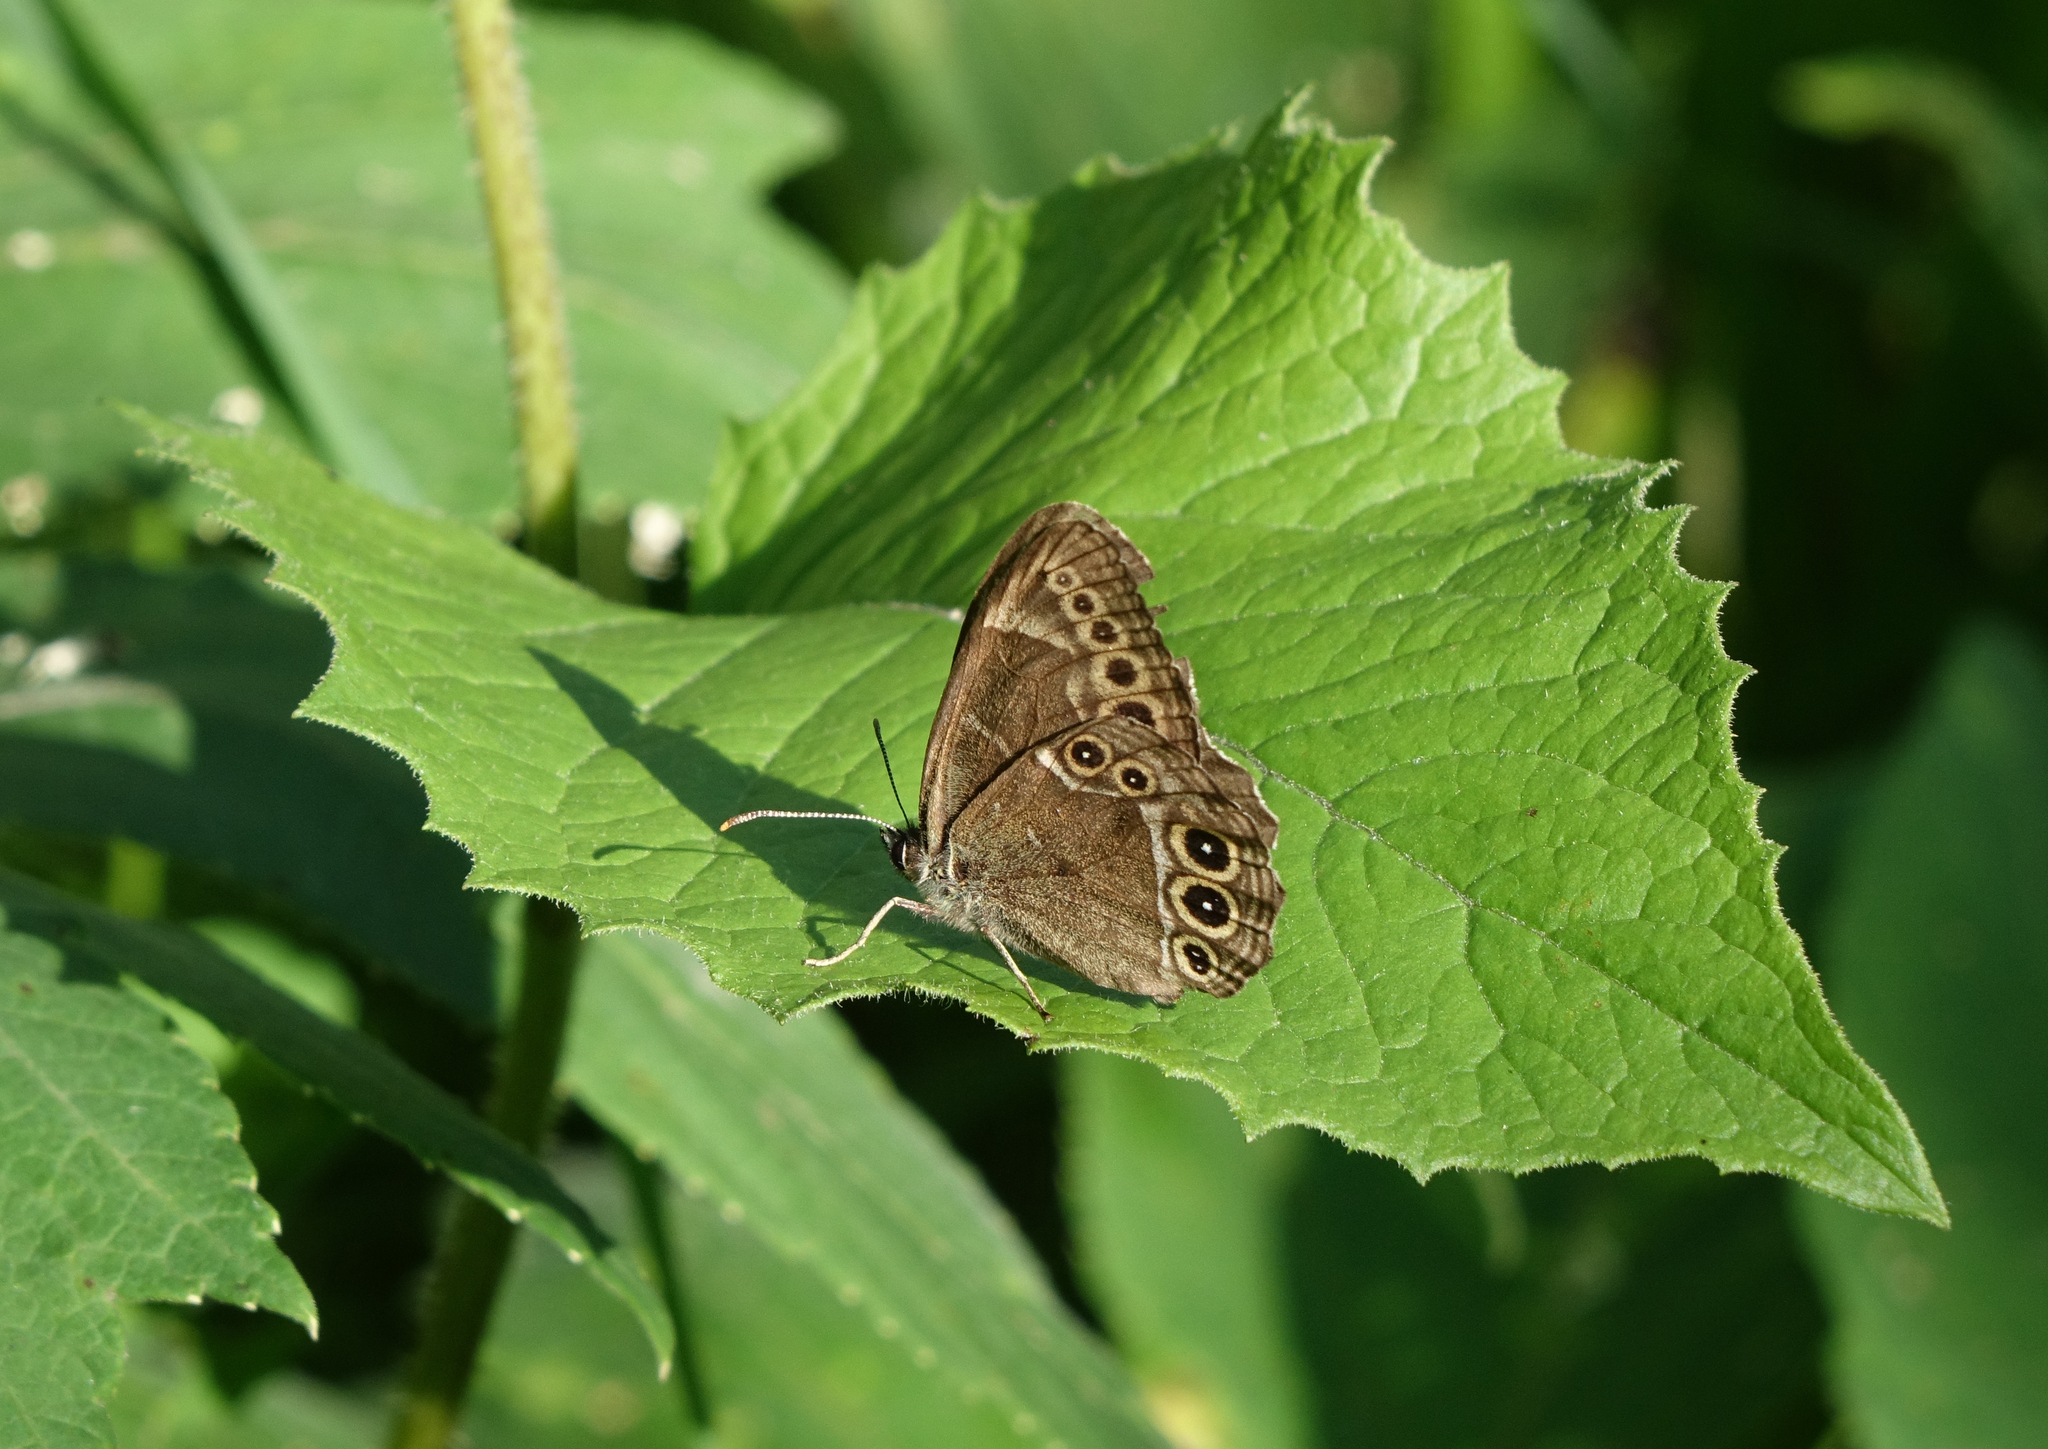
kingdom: Plantae
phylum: Tracheophyta
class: Magnoliopsida
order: Asterales
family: Asteraceae
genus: Crepis
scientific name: Crepis sibirica
